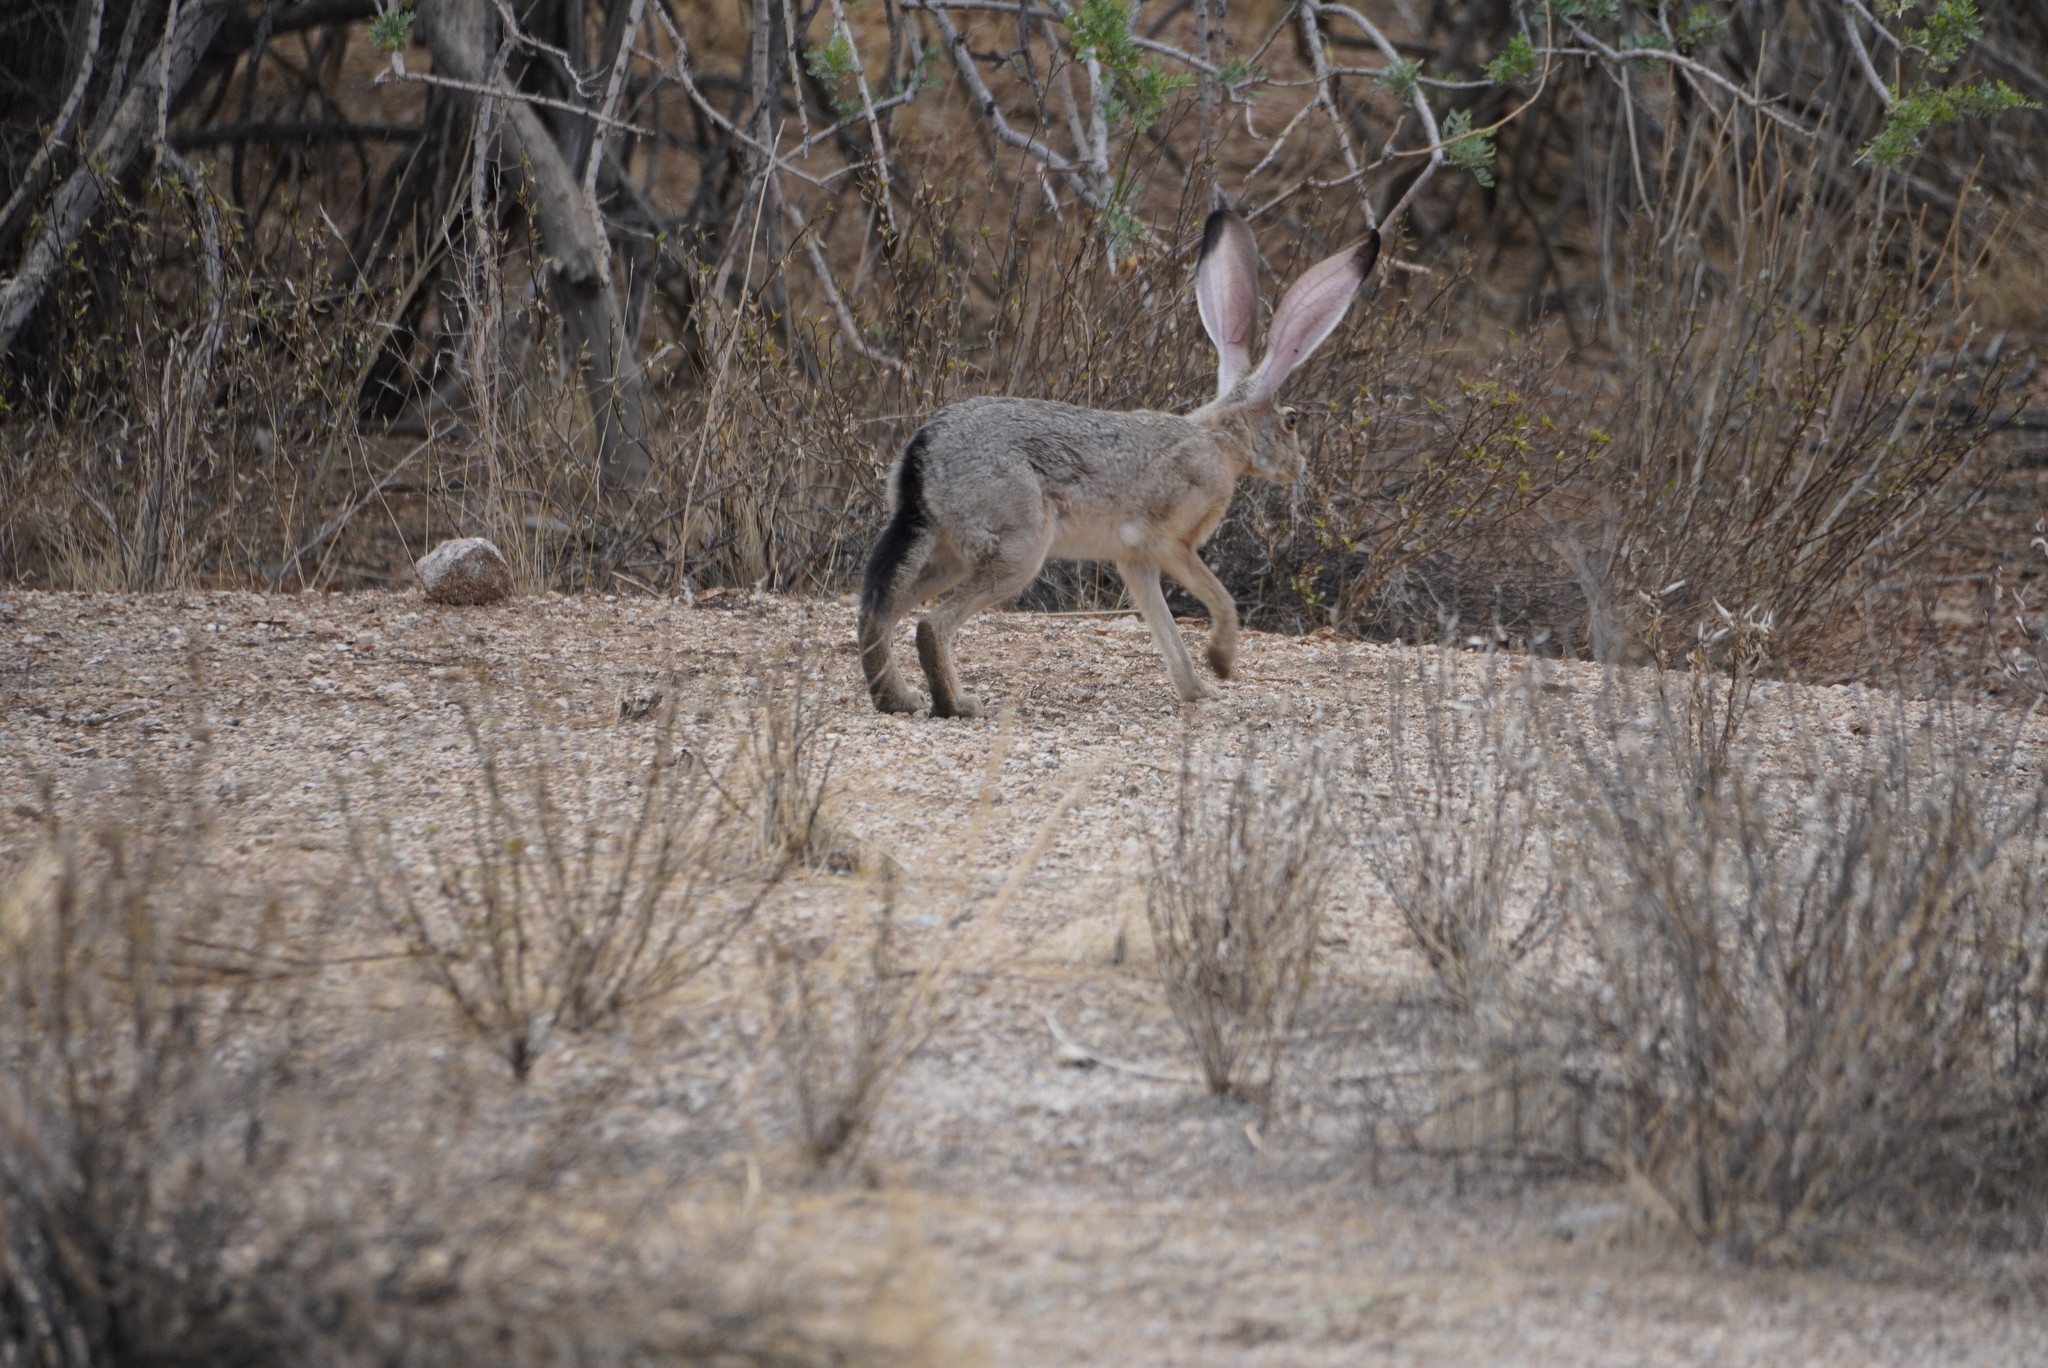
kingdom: Animalia
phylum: Chordata
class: Mammalia
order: Lagomorpha
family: Leporidae
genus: Lepus
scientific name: Lepus californicus
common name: Black-tailed jackrabbit
